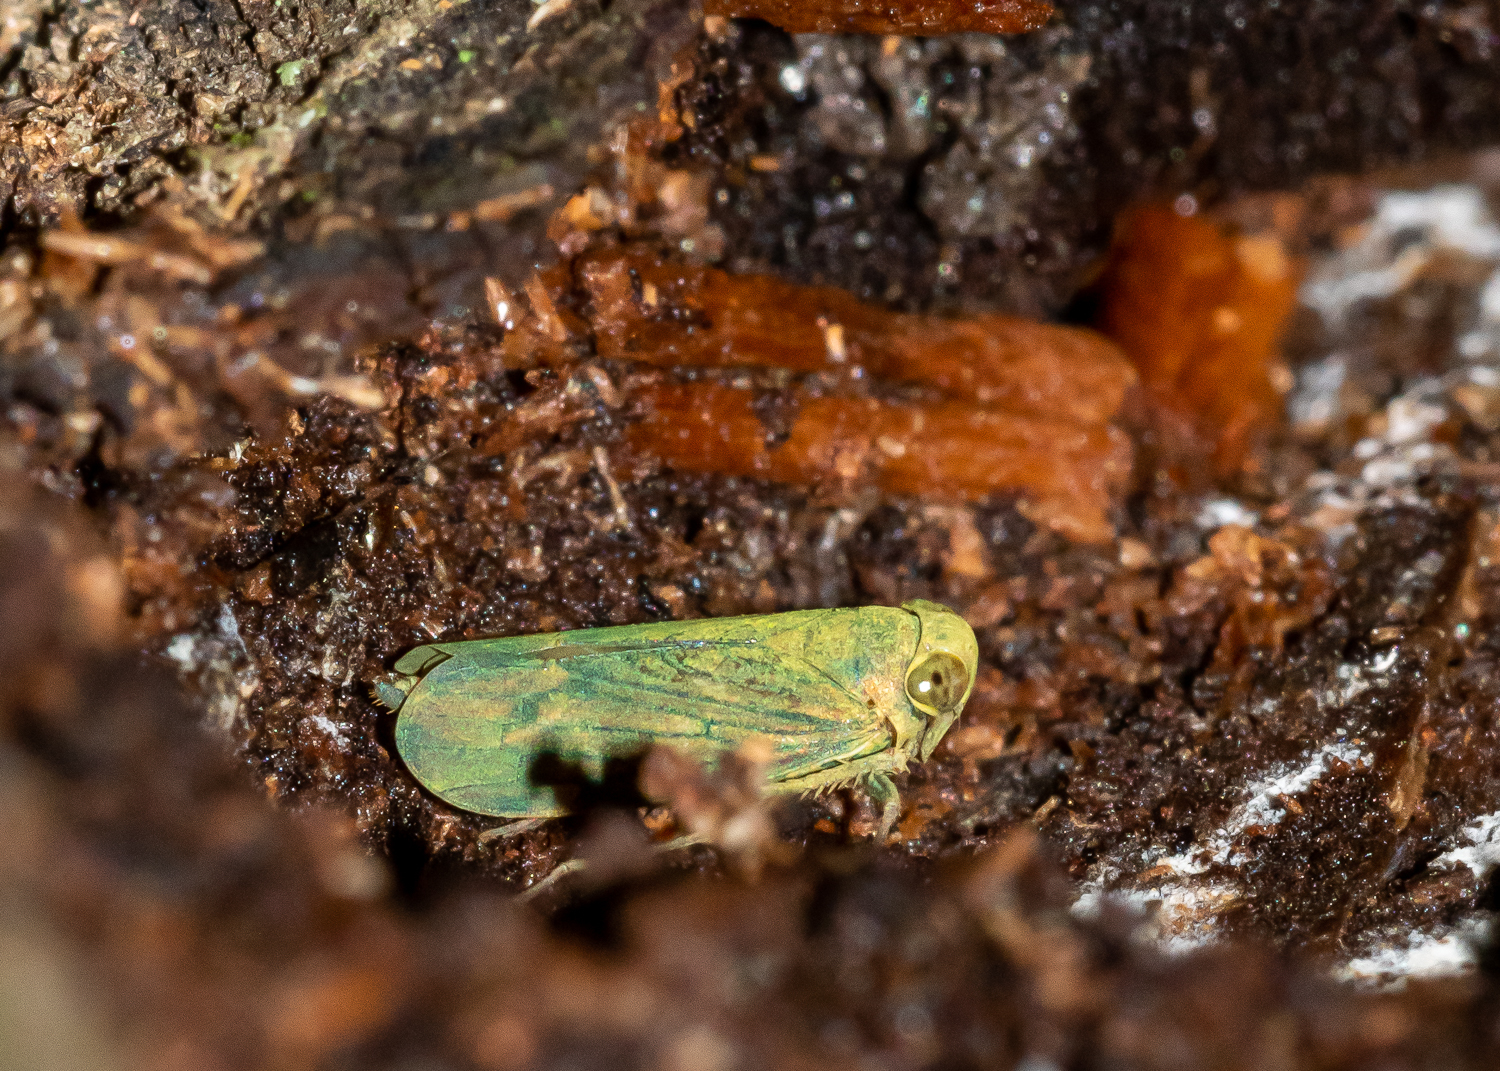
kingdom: Animalia
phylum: Arthropoda
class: Insecta
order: Hemiptera
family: Cicadellidae
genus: Jikradia
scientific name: Jikradia olitoria
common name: Coppery leafhopper
